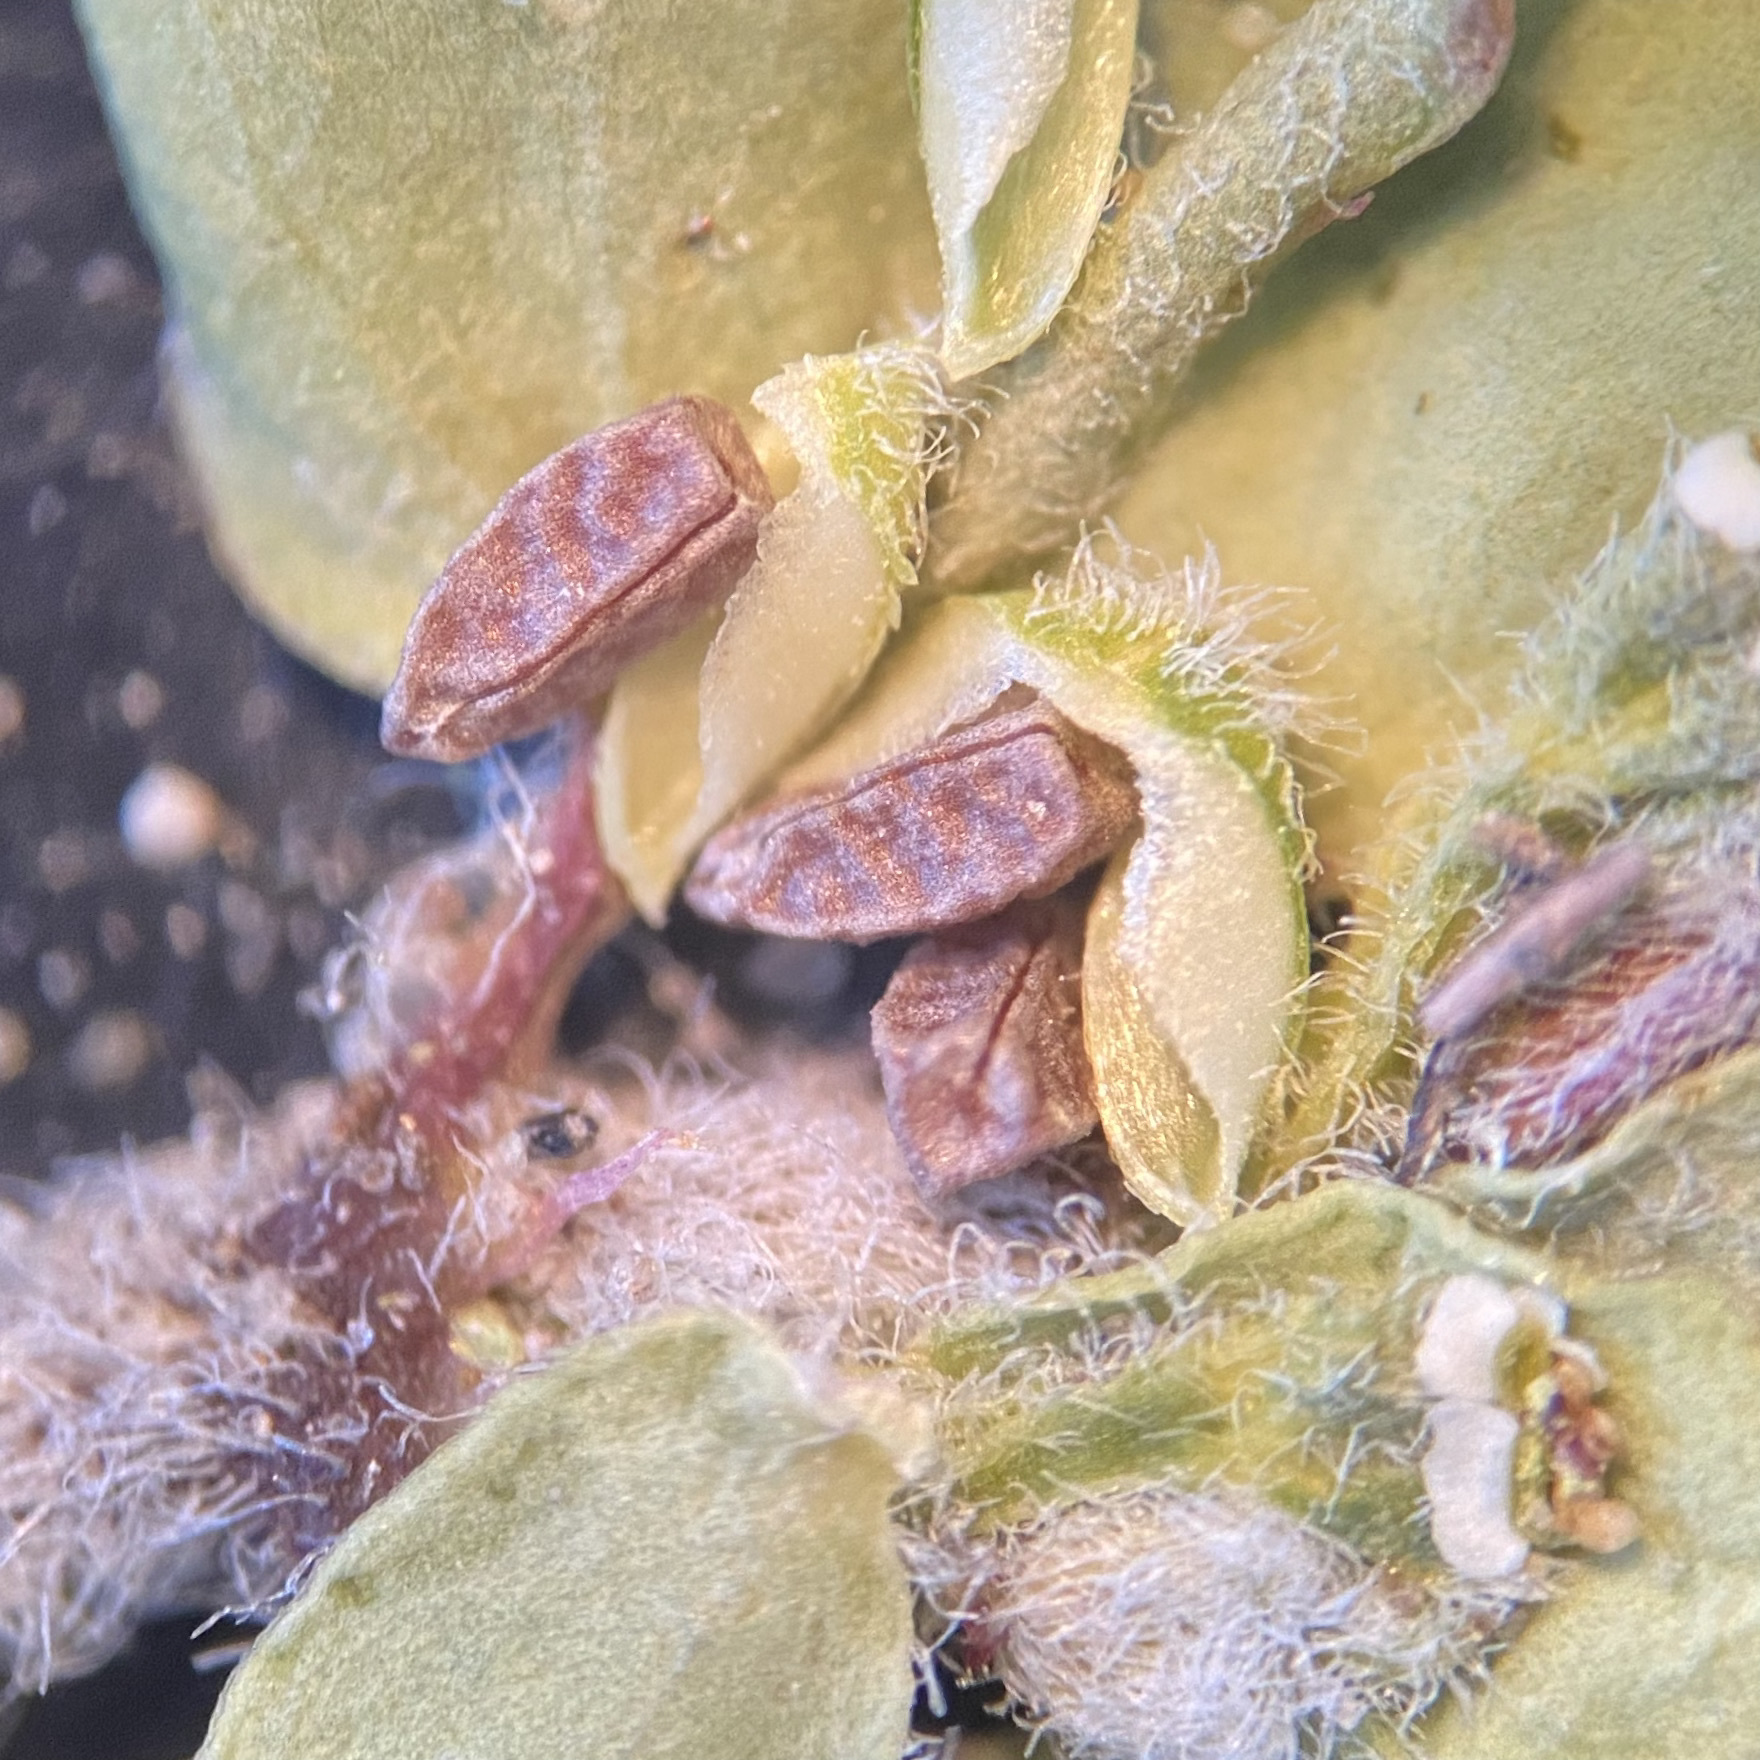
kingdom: Plantae
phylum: Tracheophyta
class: Magnoliopsida
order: Malpighiales
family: Euphorbiaceae
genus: Euphorbia
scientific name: Euphorbia stictospora
